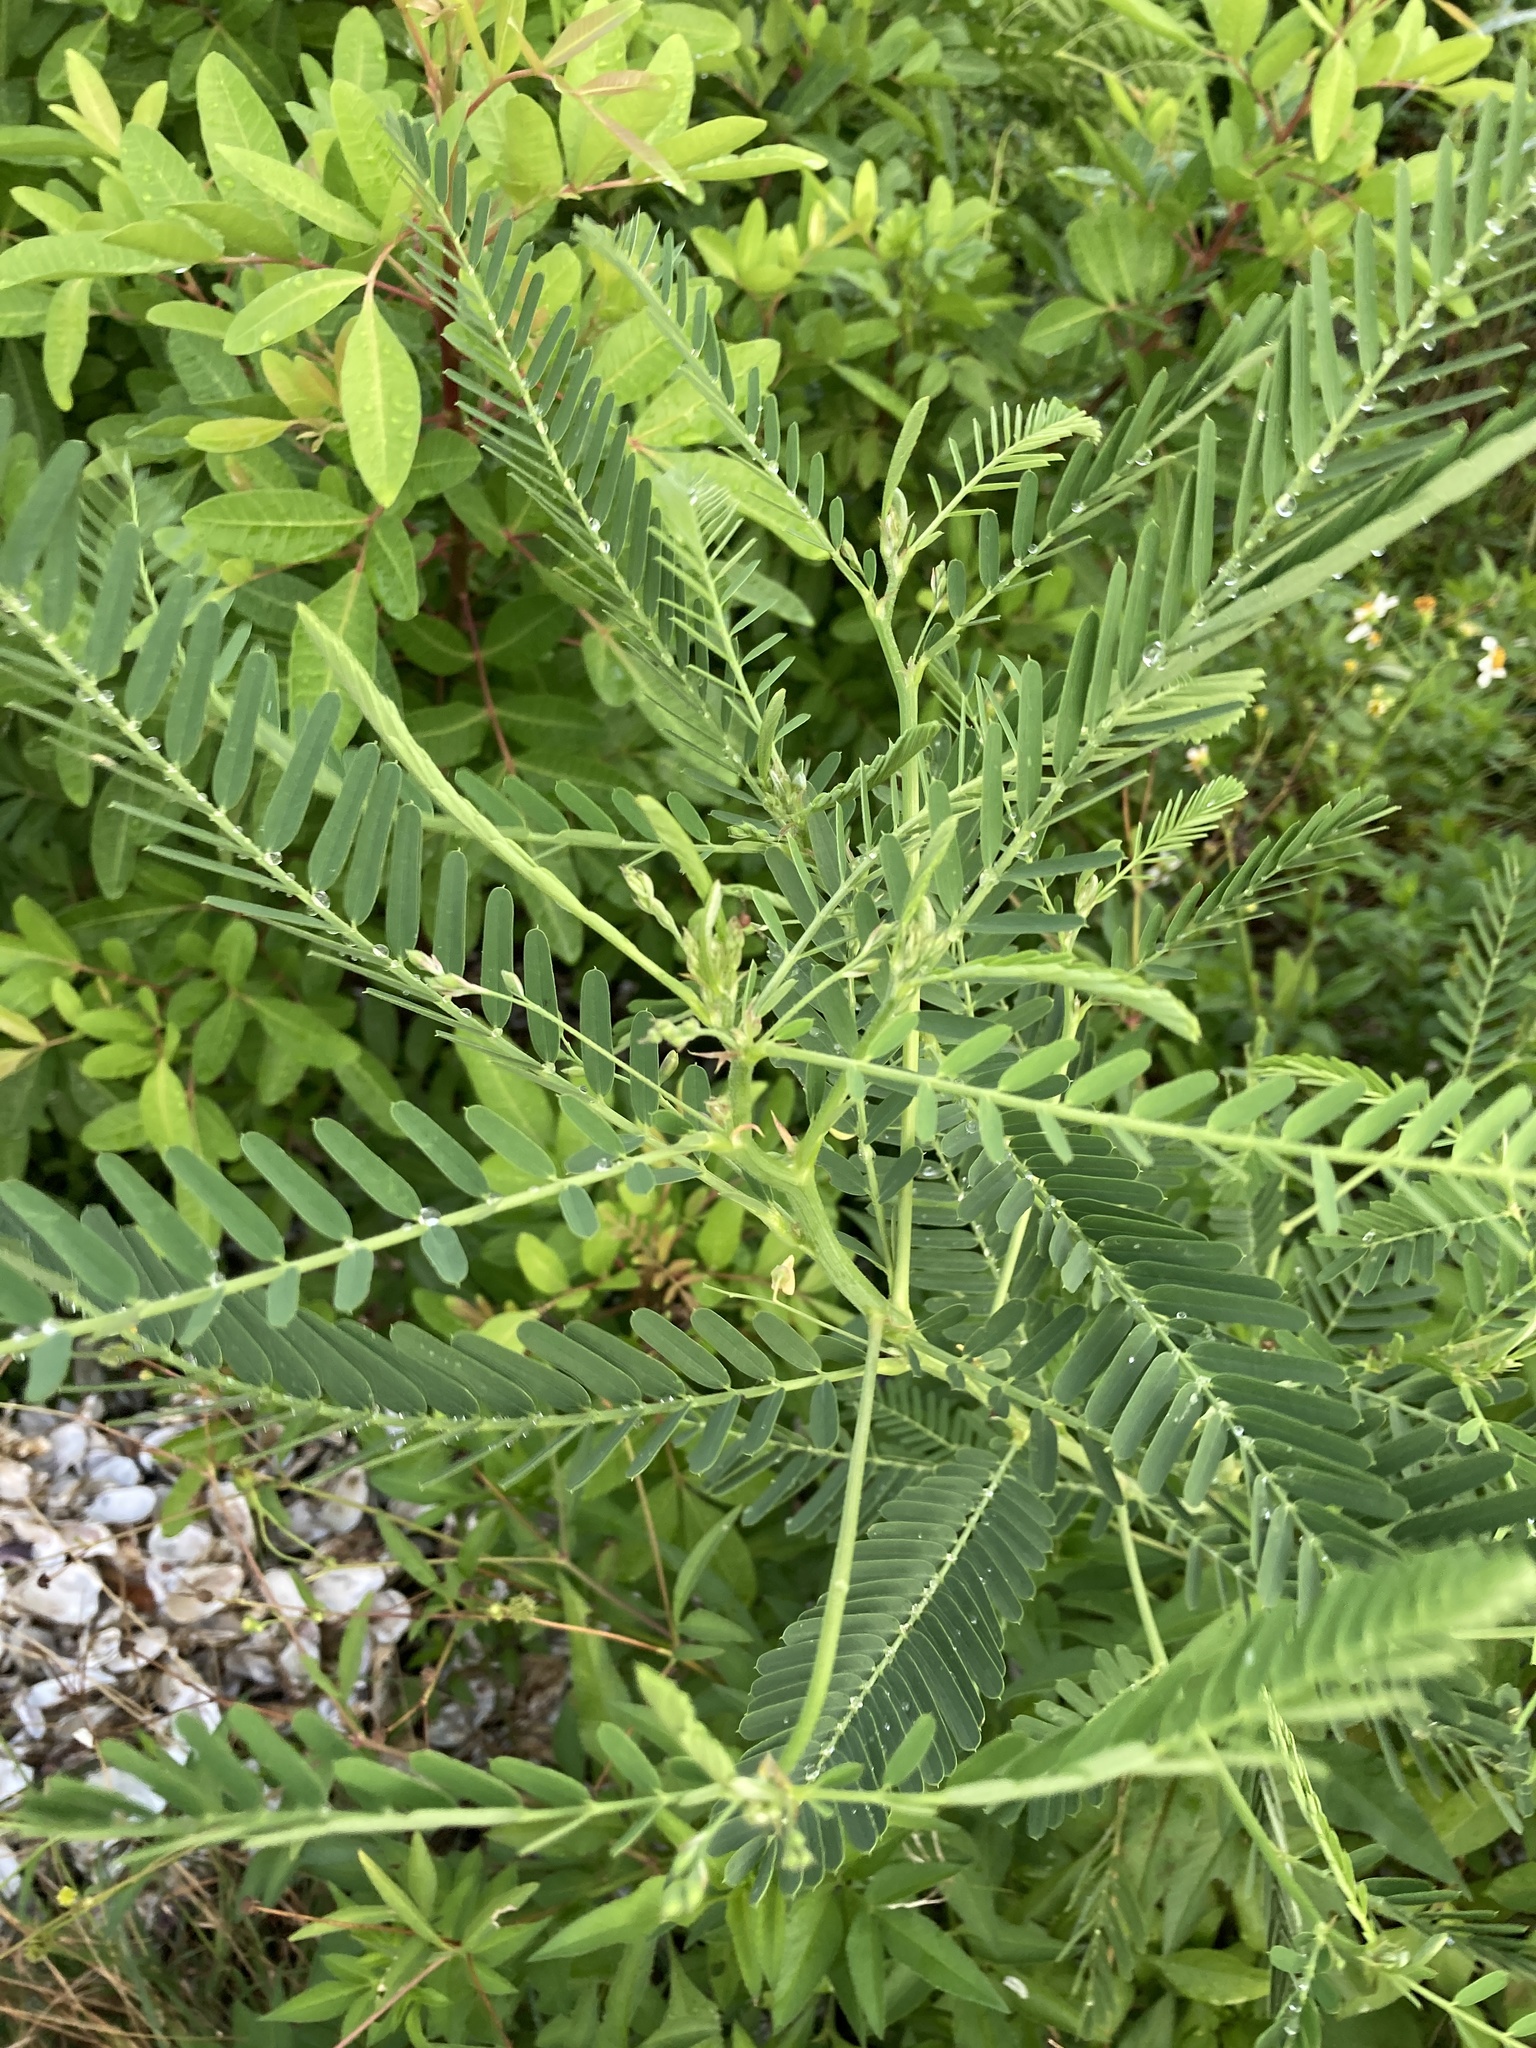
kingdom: Plantae
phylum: Tracheophyta
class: Magnoliopsida
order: Fabales
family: Fabaceae
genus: Sesbania
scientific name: Sesbania cannabina
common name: Canicha
